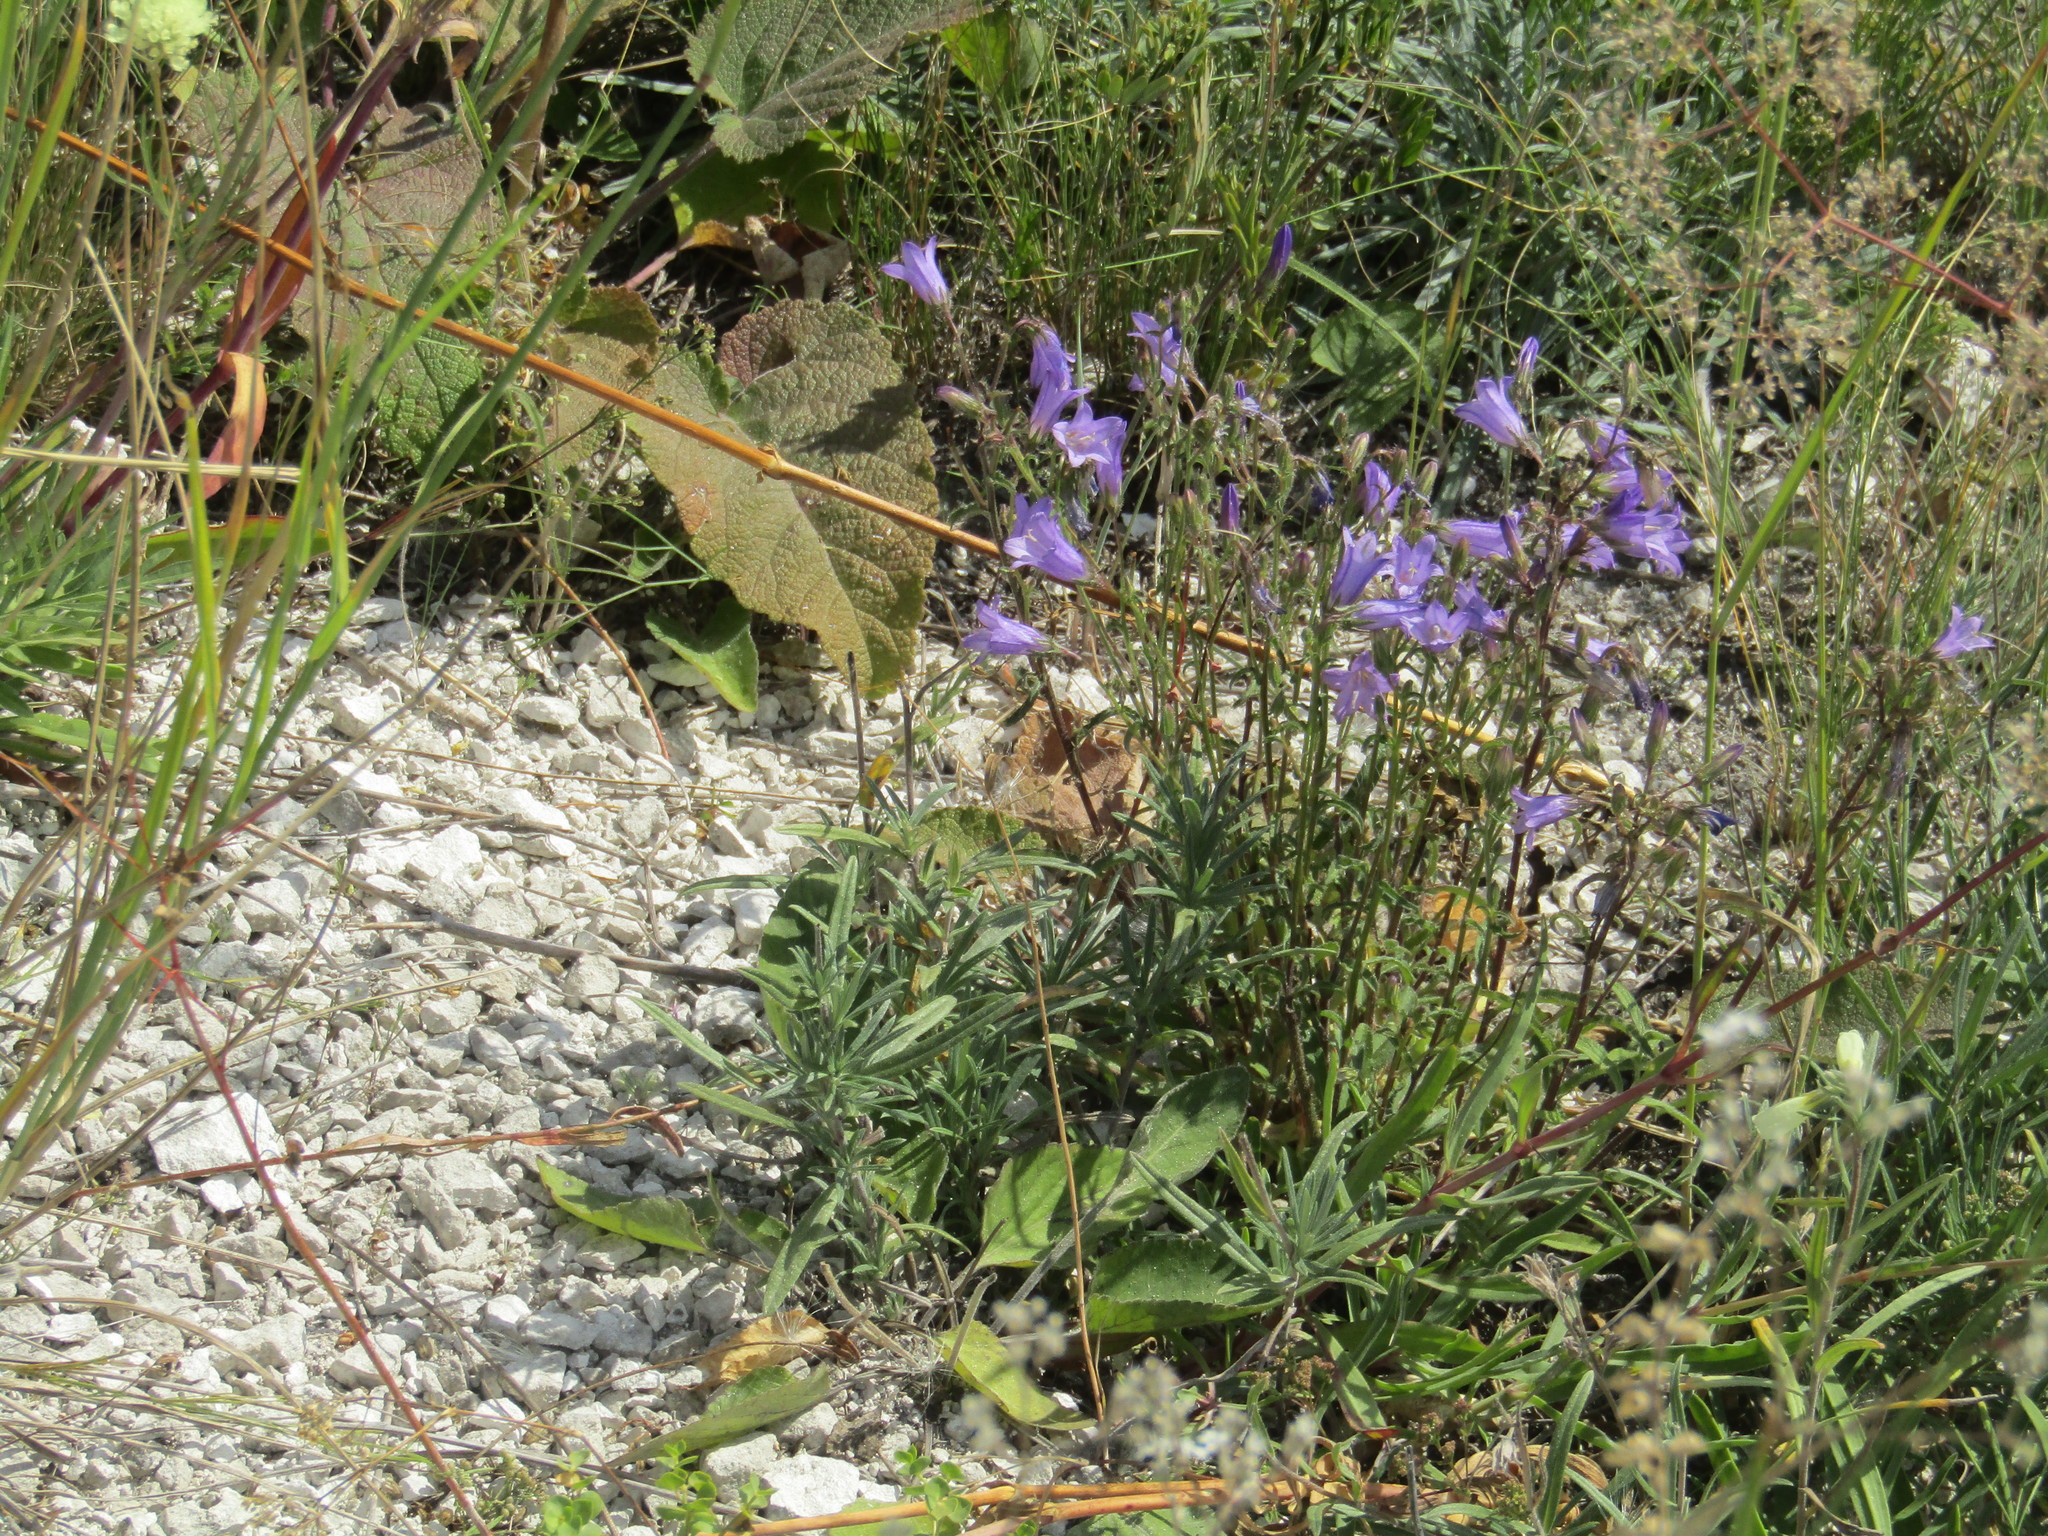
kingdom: Plantae
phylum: Tracheophyta
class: Magnoliopsida
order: Asterales
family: Campanulaceae
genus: Campanula
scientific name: Campanula sibirica
